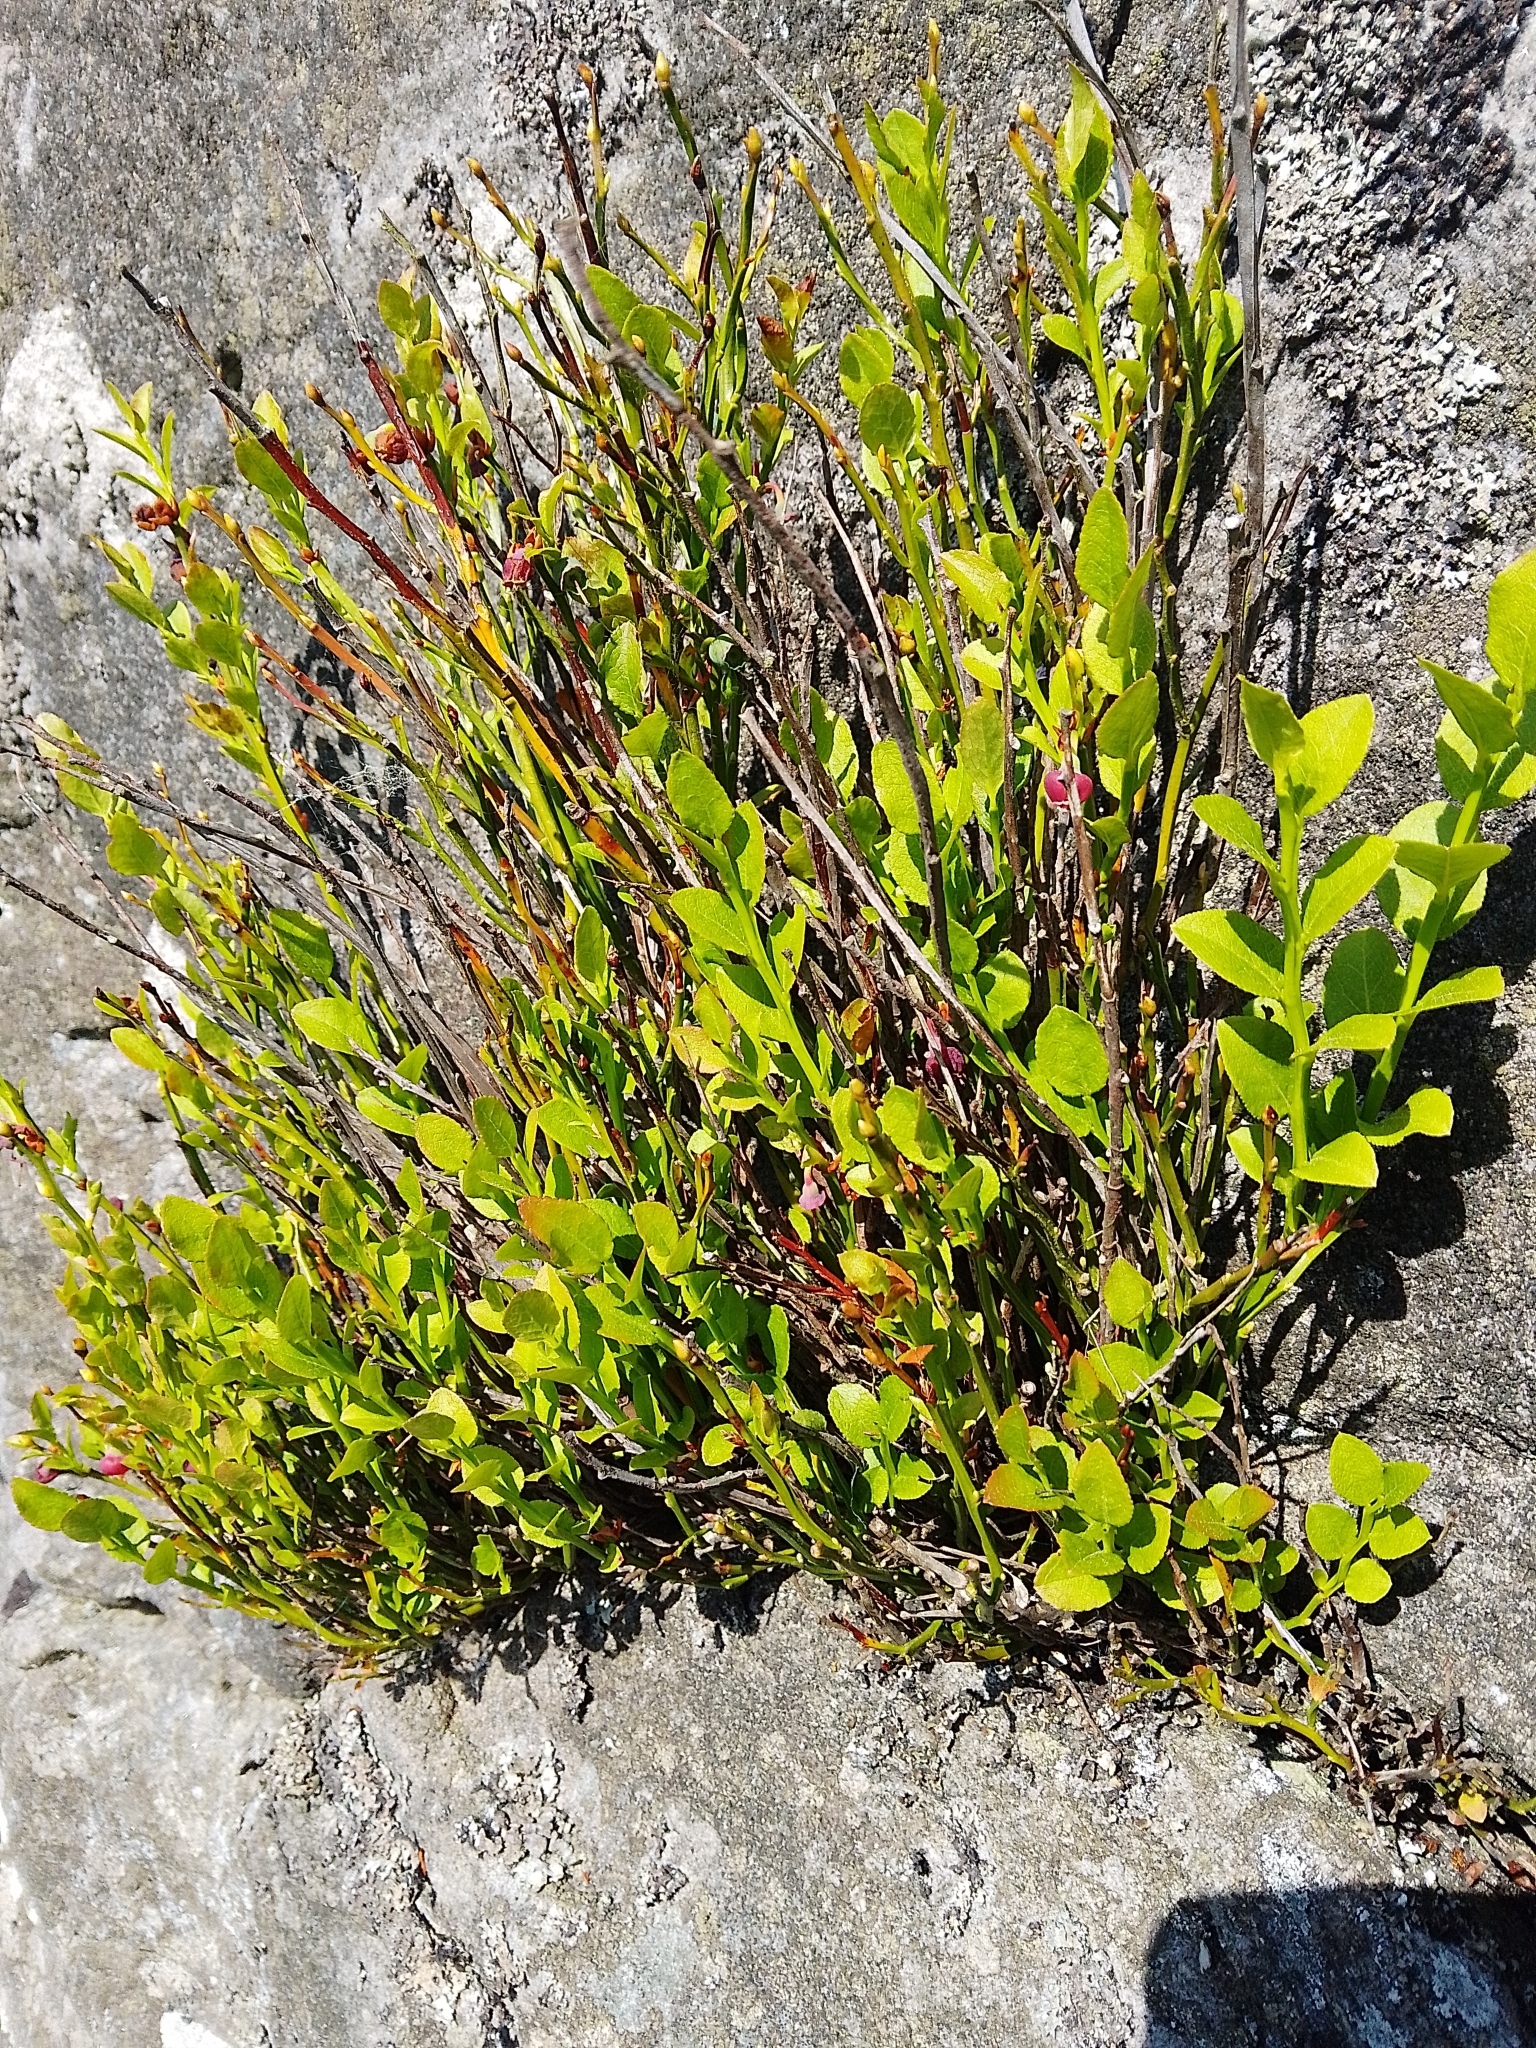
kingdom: Plantae
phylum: Tracheophyta
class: Magnoliopsida
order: Ericales
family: Ericaceae
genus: Vaccinium
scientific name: Vaccinium myrtillus
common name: Bilberry
